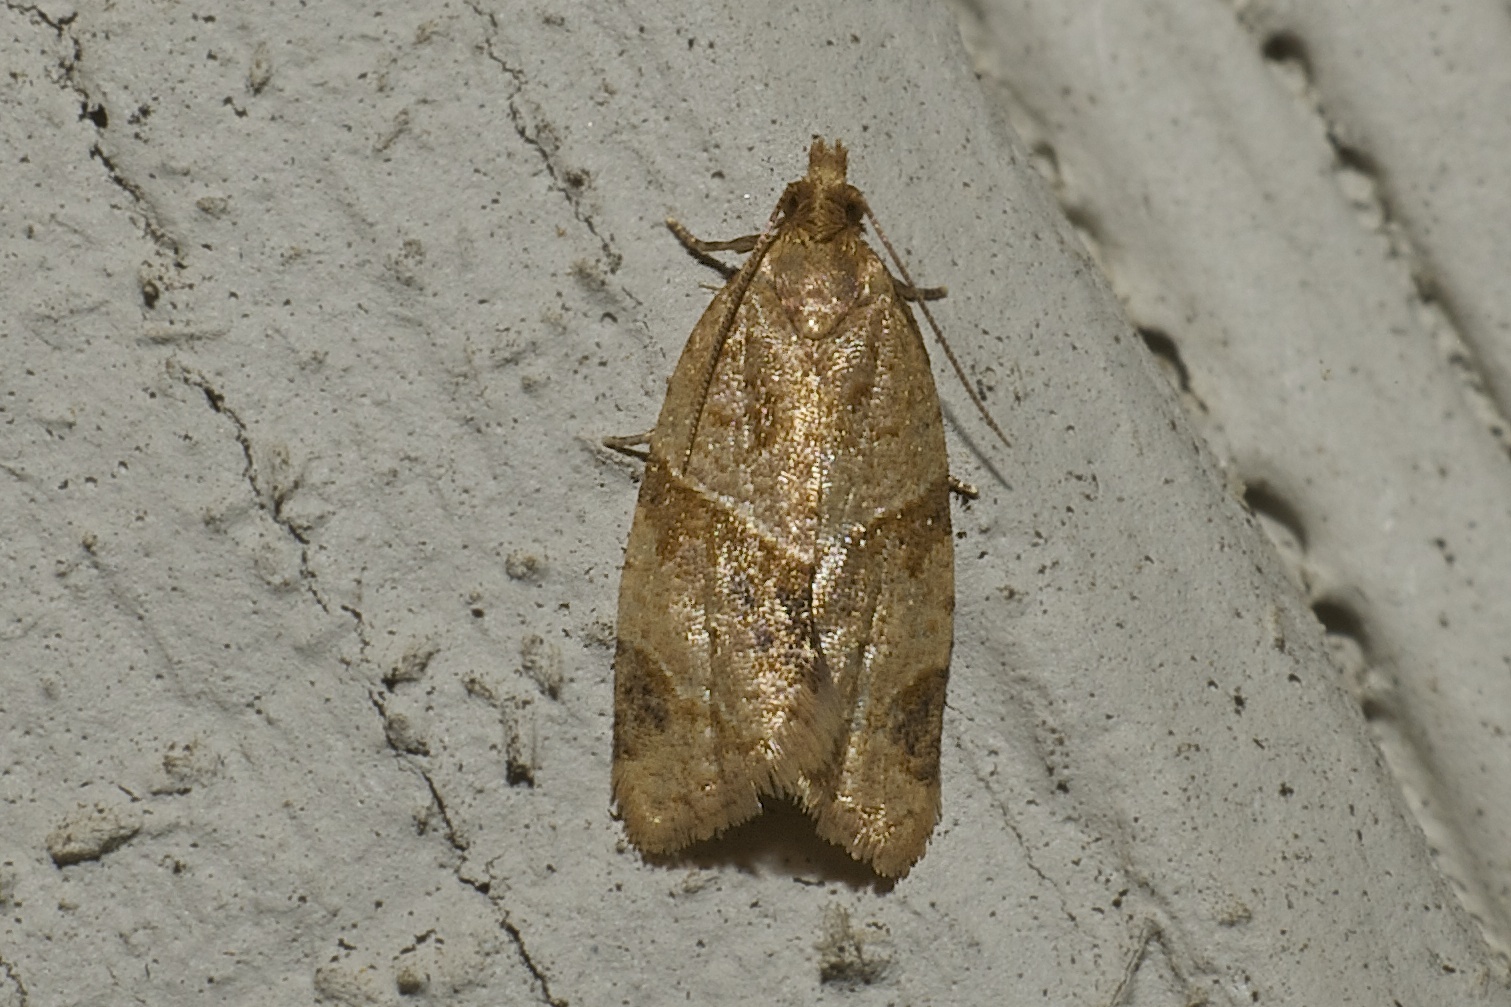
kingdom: Animalia
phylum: Arthropoda
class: Insecta
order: Lepidoptera
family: Tortricidae
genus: Clepsis
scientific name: Clepsis peritana
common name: Garden tortrix
